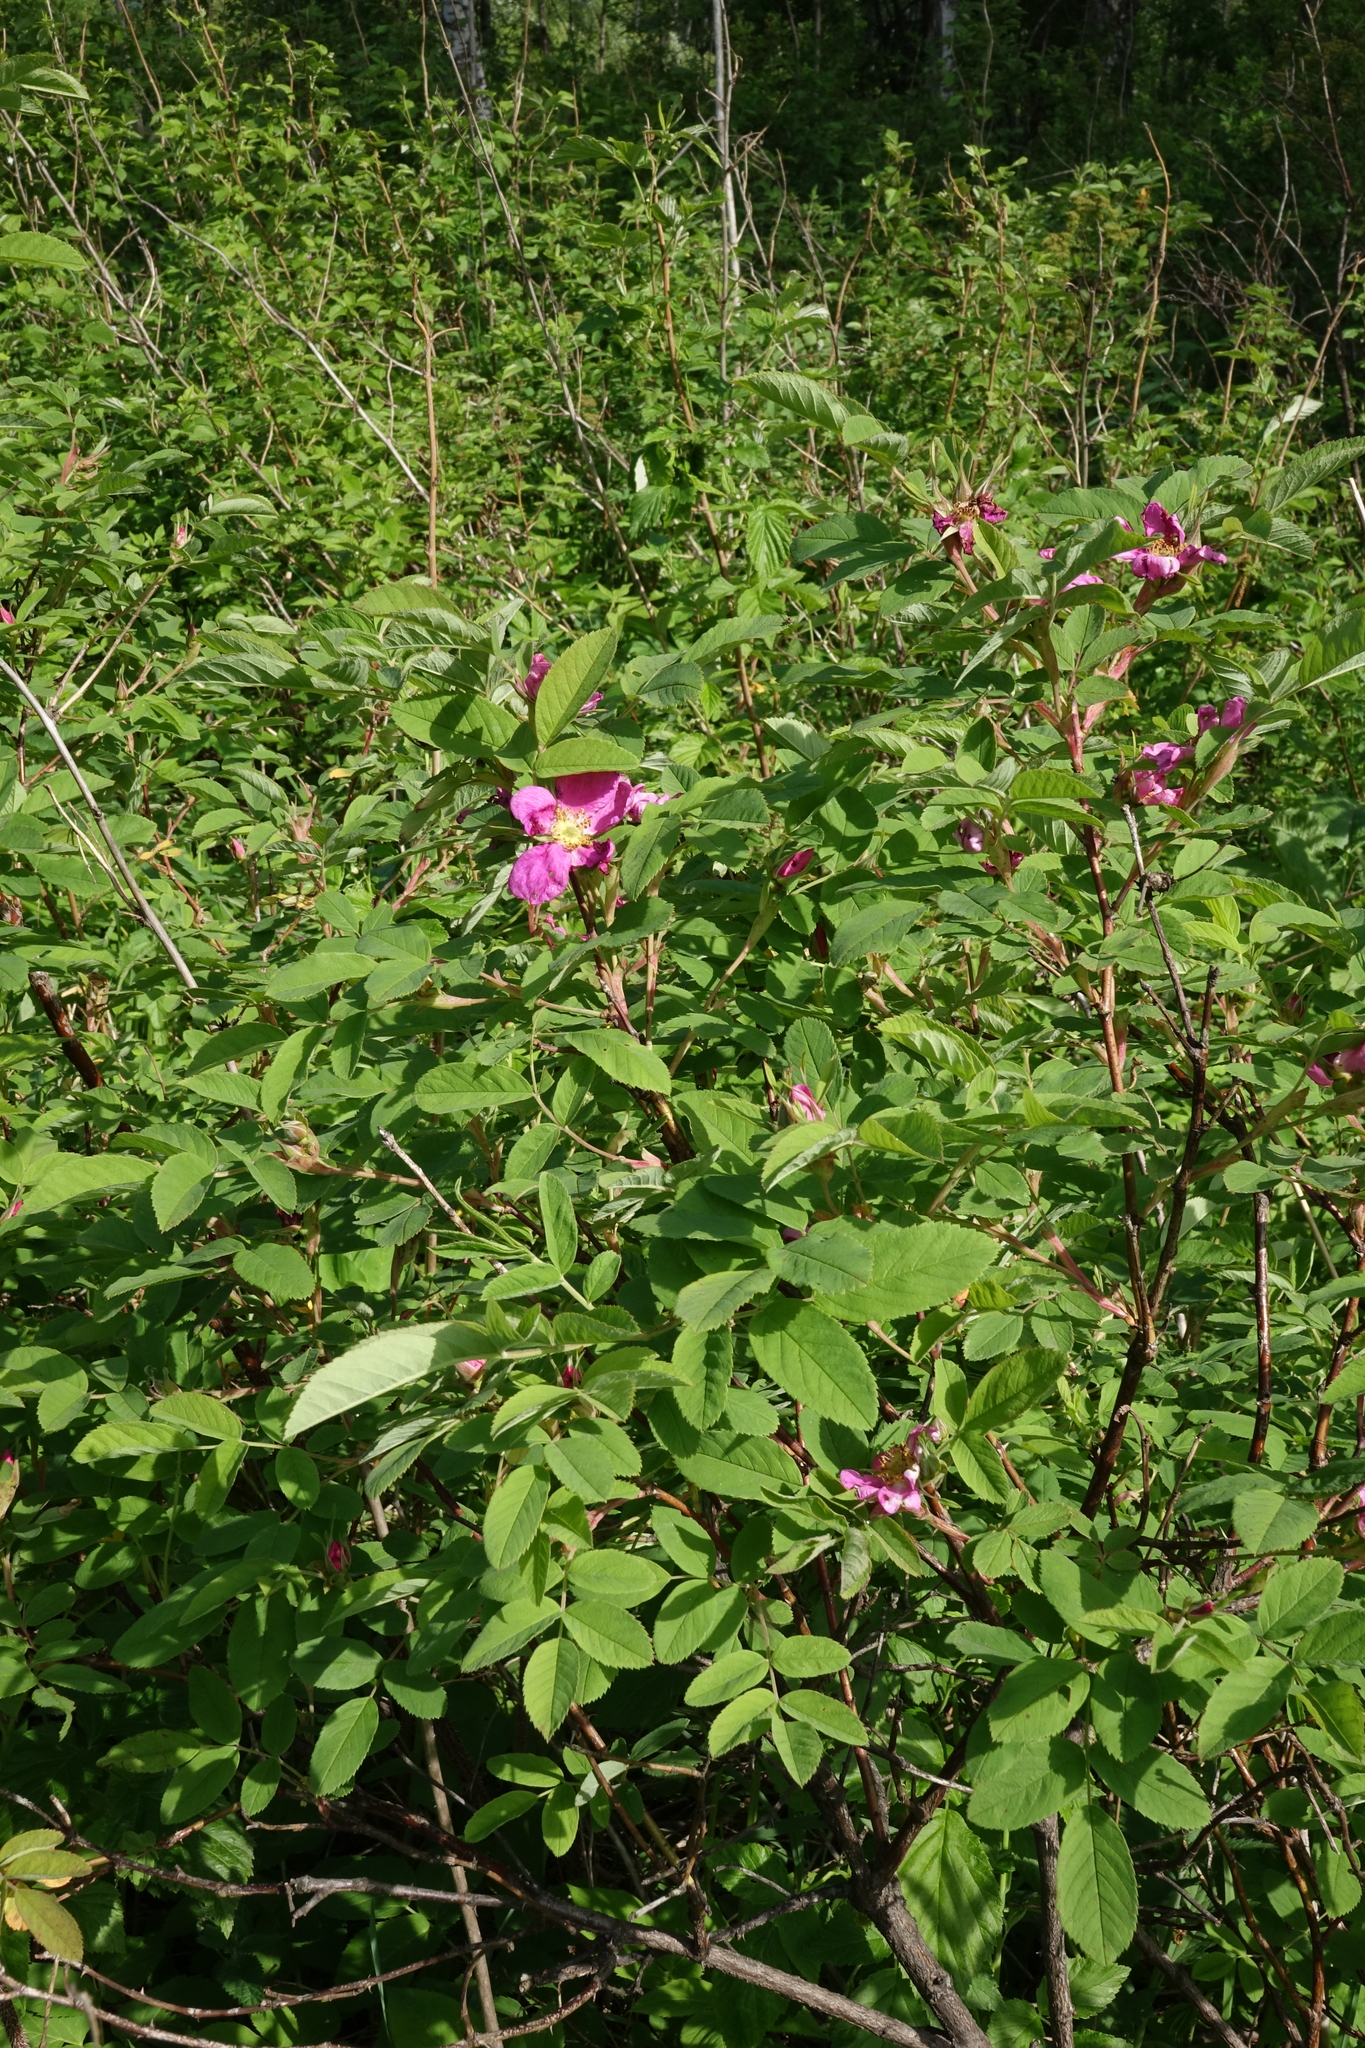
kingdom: Plantae
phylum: Tracheophyta
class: Magnoliopsida
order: Rosales
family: Rosaceae
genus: Rosa
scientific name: Rosa majalis
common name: Cinnamon rose
